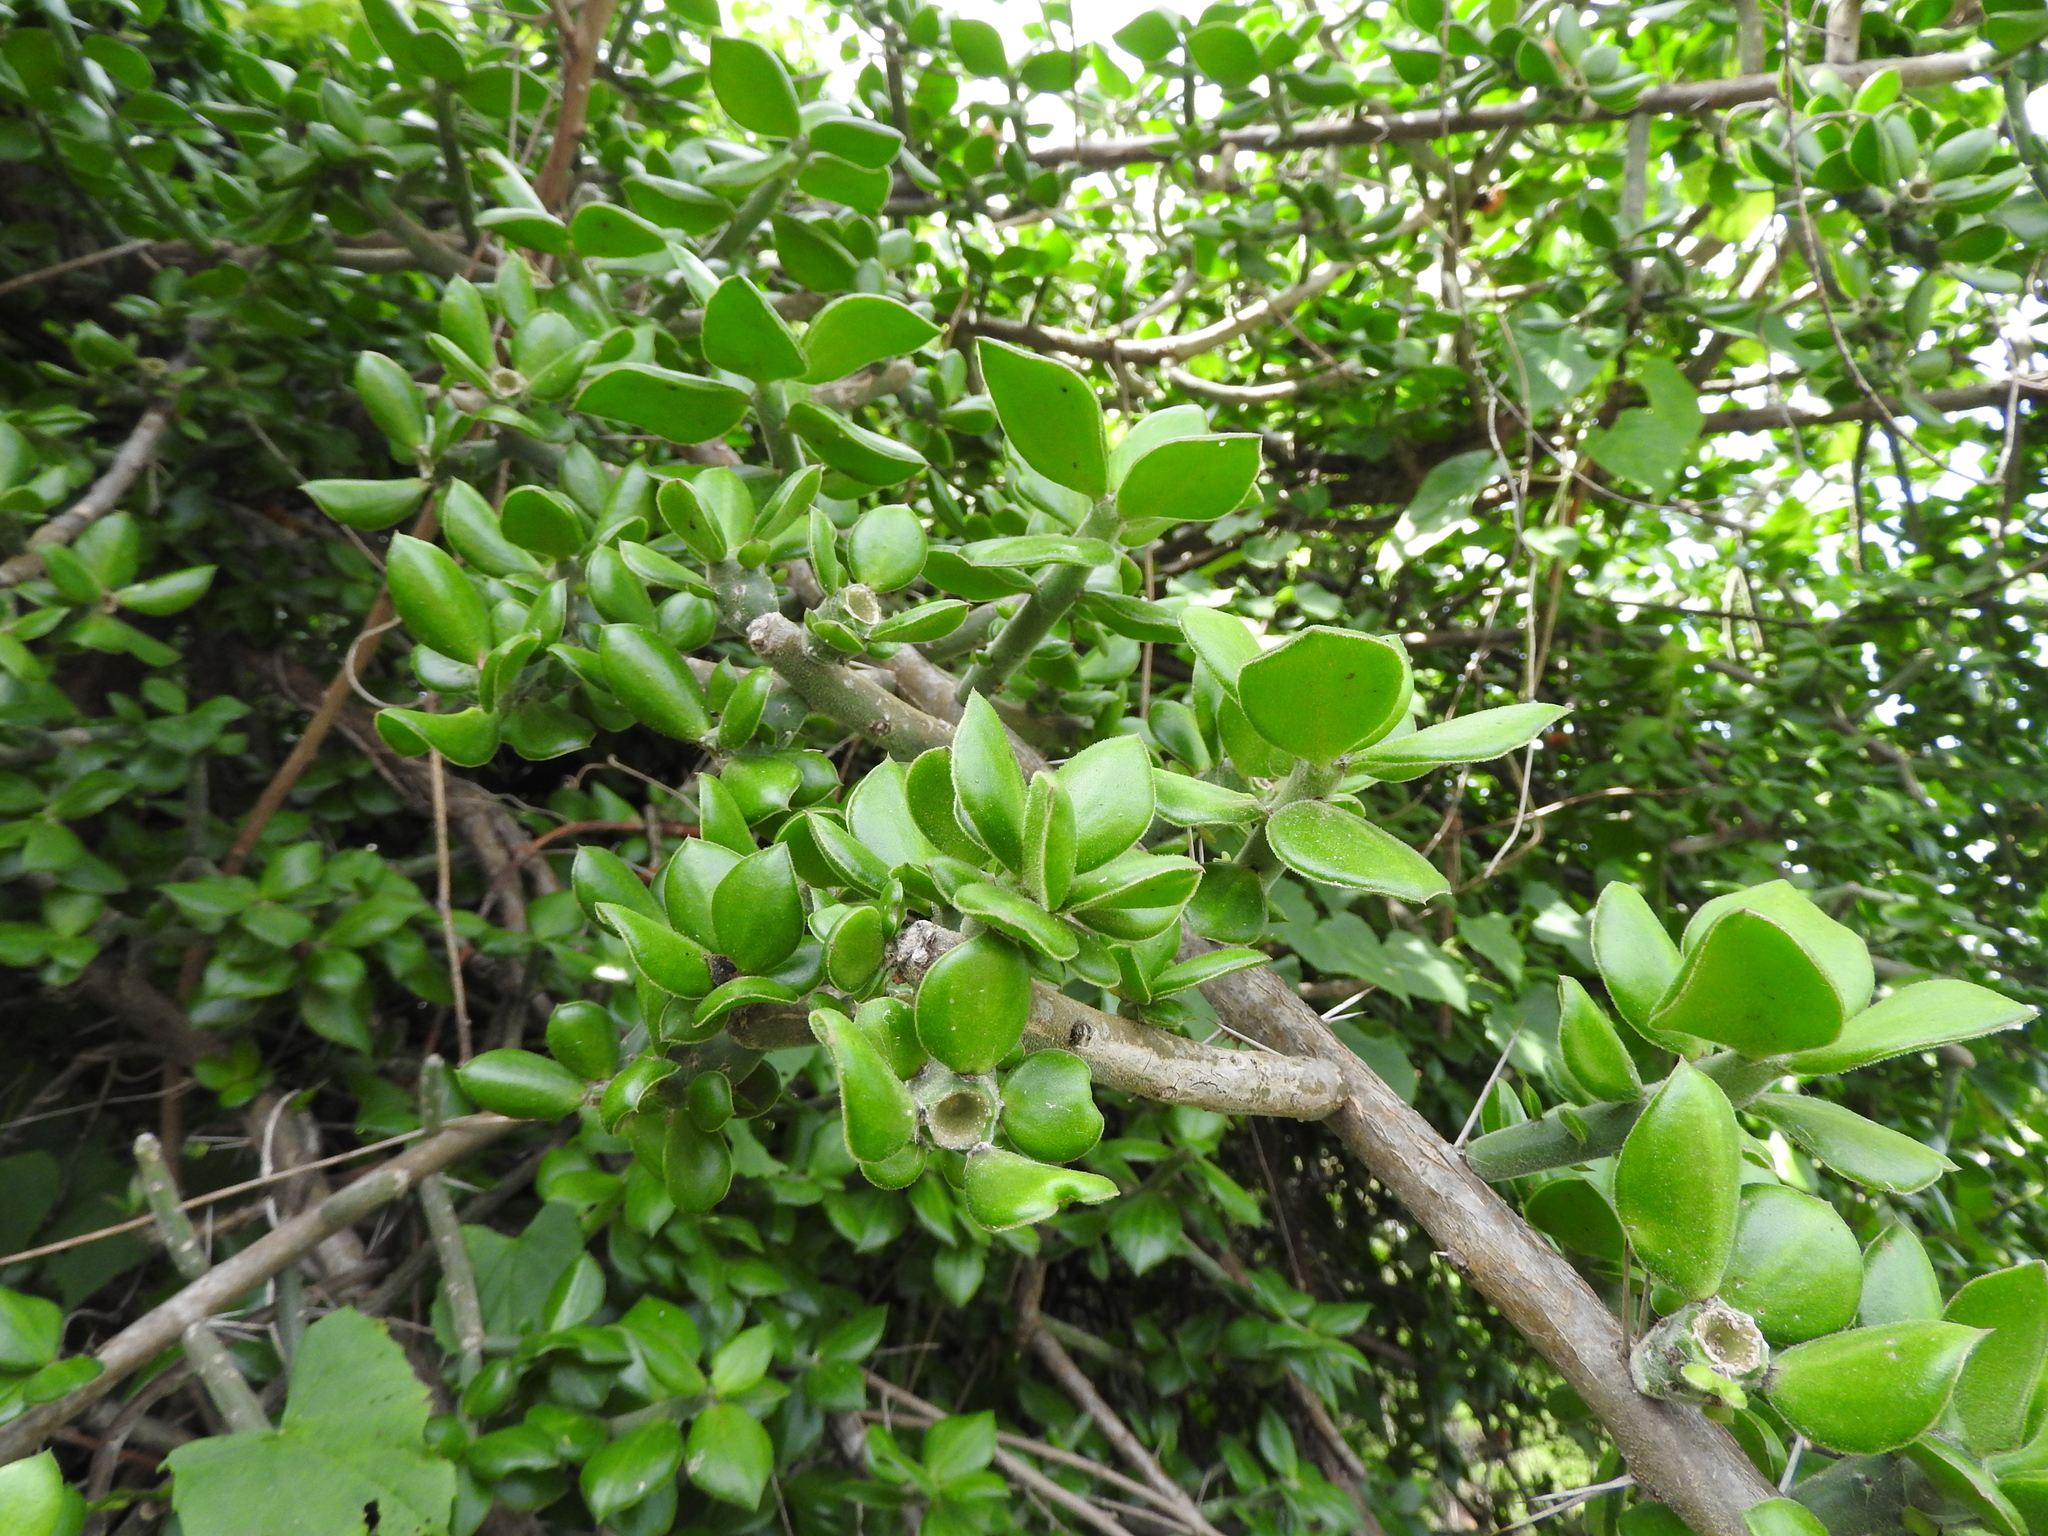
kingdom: Plantae
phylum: Tracheophyta
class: Magnoliopsida
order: Caryophyllales
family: Cactaceae
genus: Pereskiopsis
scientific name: Pereskiopsis diguetii
